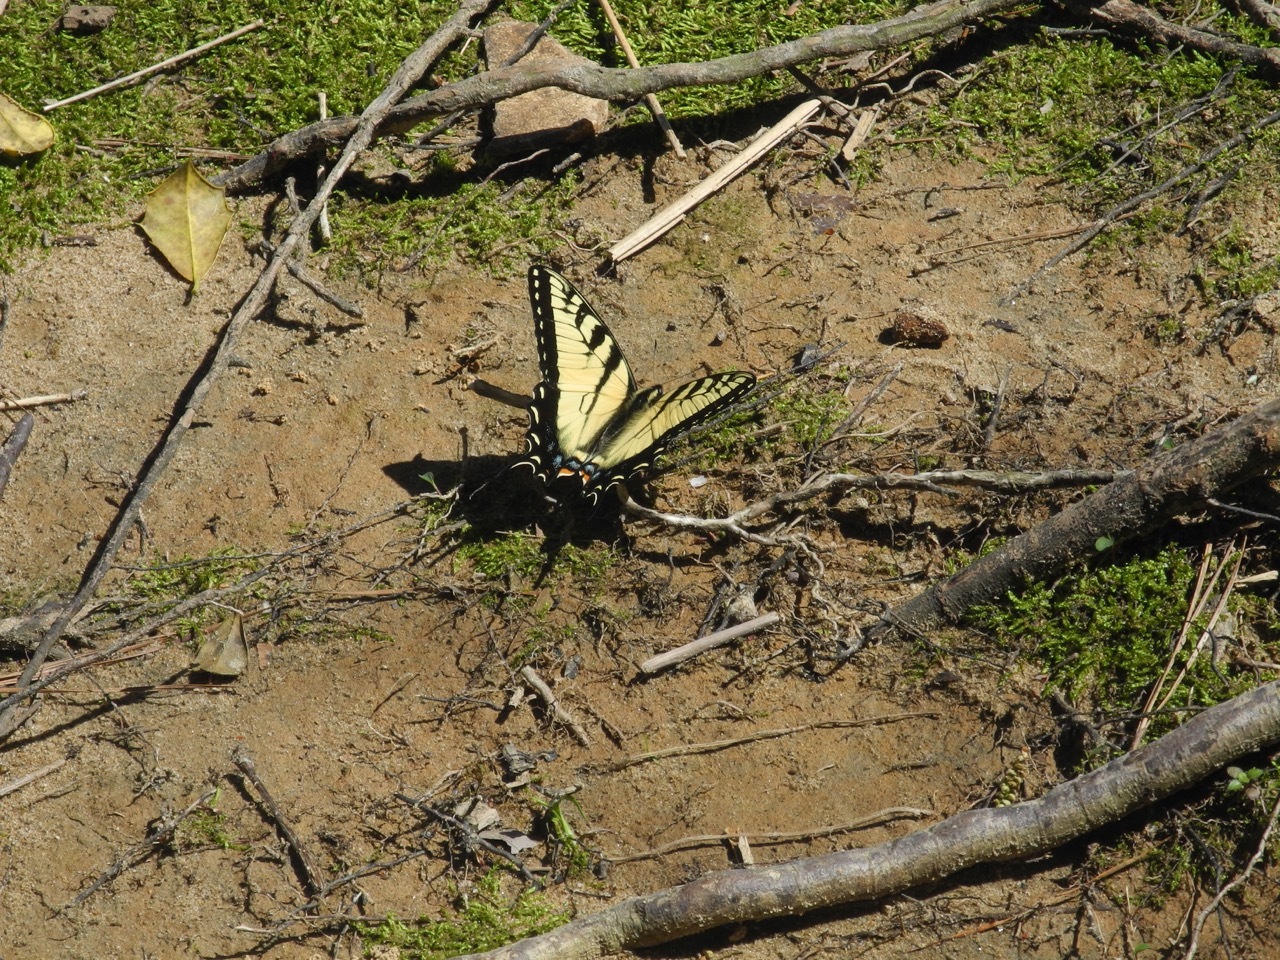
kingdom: Animalia
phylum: Arthropoda
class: Insecta
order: Lepidoptera
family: Papilionidae
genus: Papilio
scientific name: Papilio glaucus
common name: Tiger swallowtail
